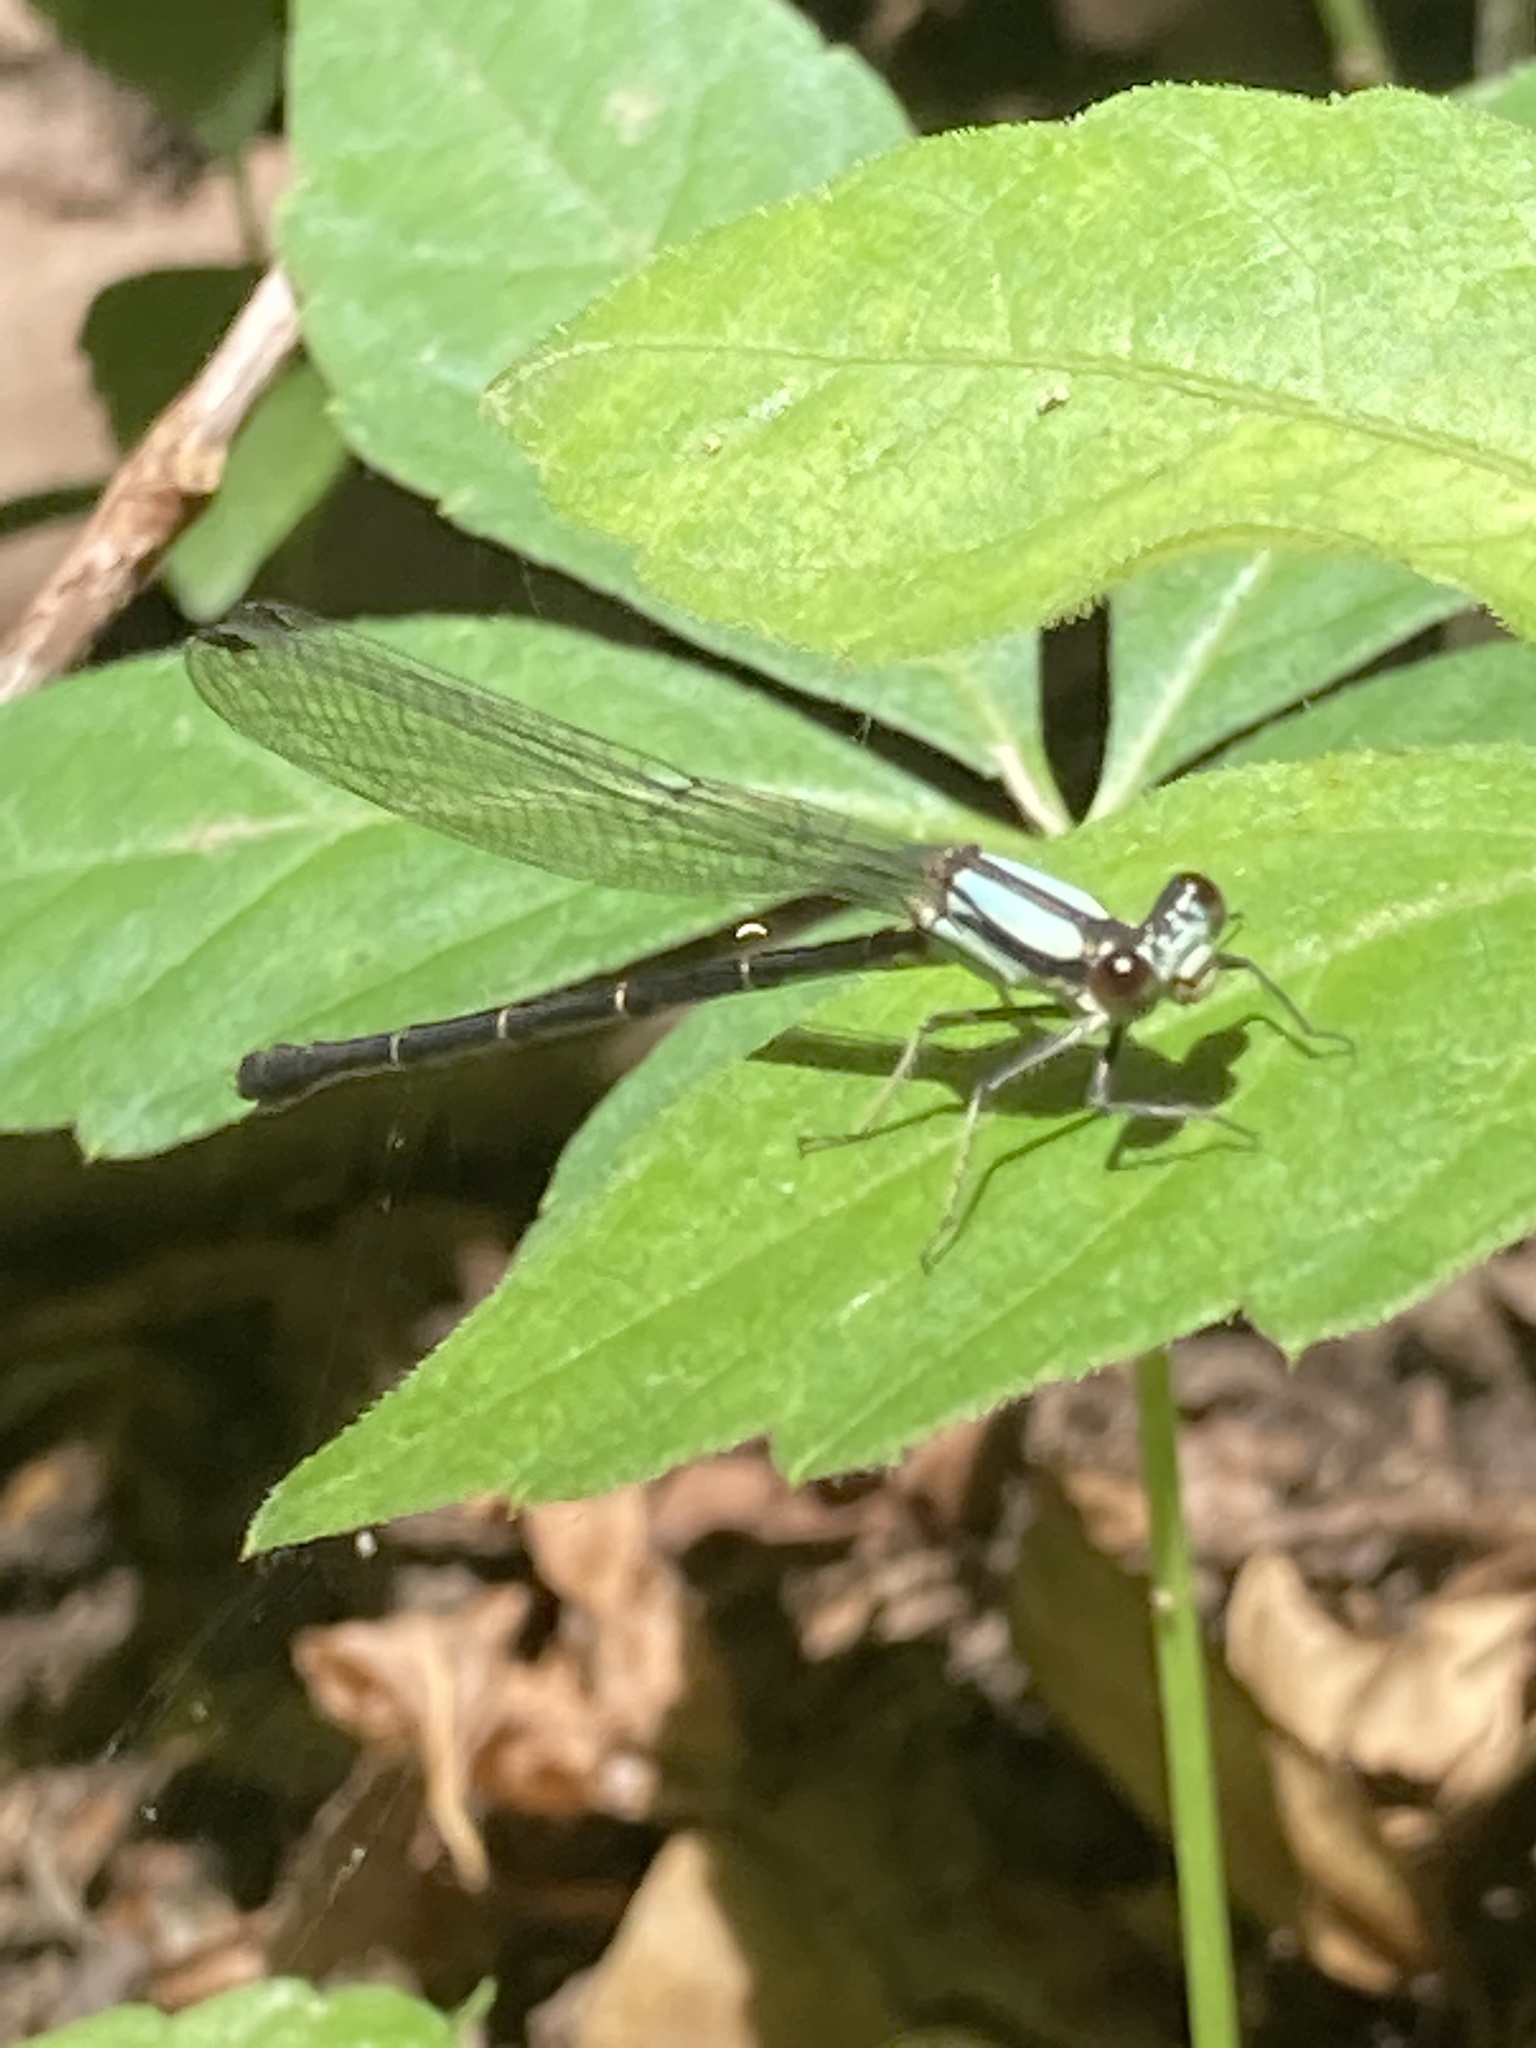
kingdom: Animalia
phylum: Arthropoda
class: Insecta
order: Odonata
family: Coenagrionidae
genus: Argia
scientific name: Argia tibialis
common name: Blue-tipped dancer
